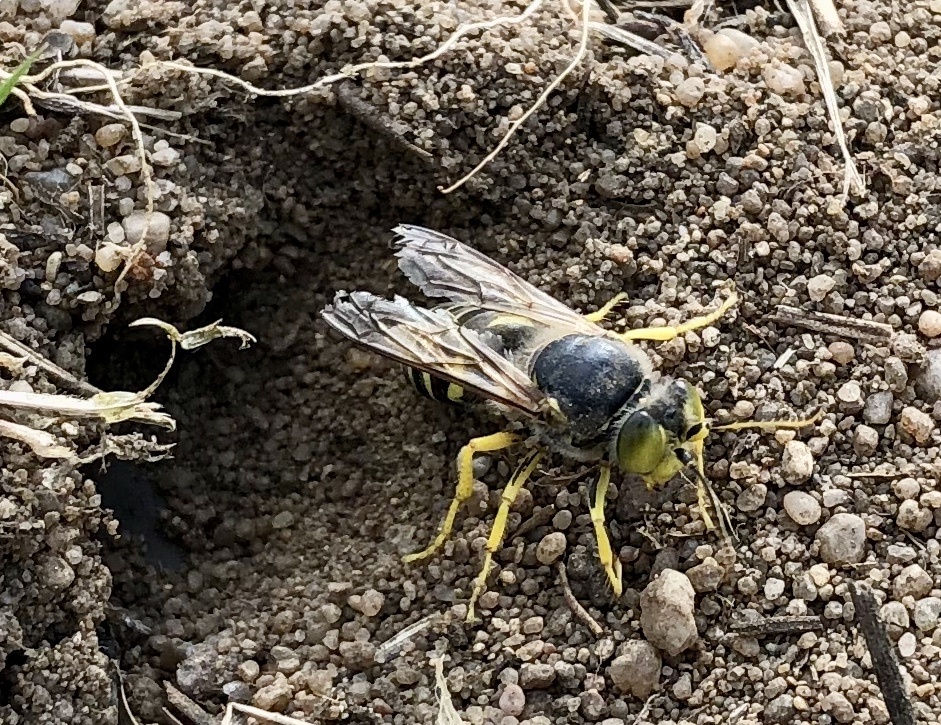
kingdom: Animalia
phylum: Arthropoda
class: Insecta
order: Hymenoptera
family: Crabronidae
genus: Bembix
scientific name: Bembix rostrata
